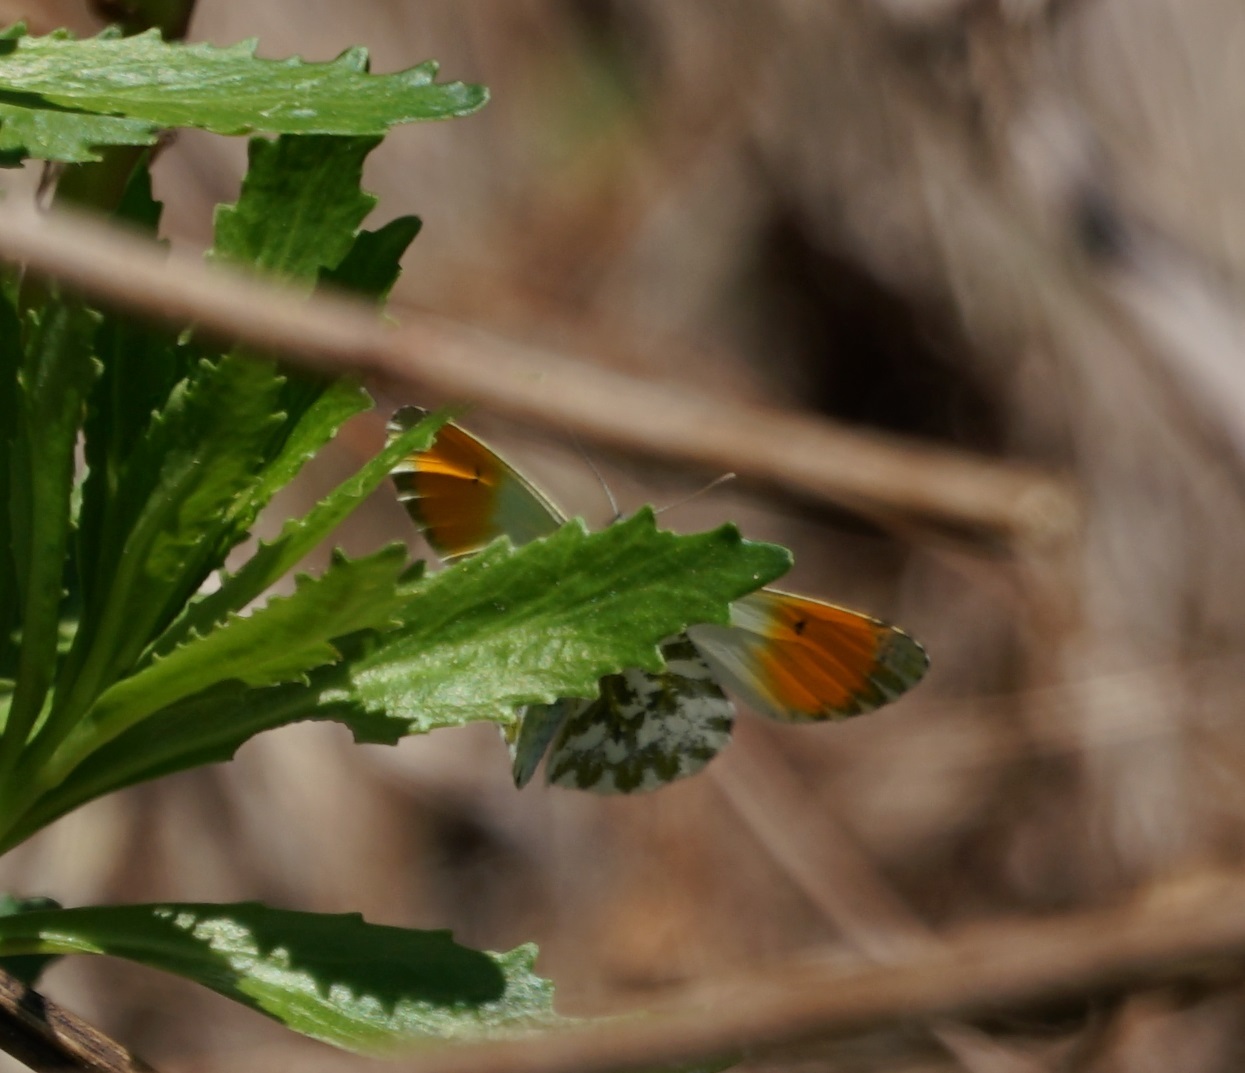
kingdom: Animalia
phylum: Arthropoda
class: Insecta
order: Lepidoptera
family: Pieridae
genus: Anthocharis
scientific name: Anthocharis cardamines
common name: Orange-tip
